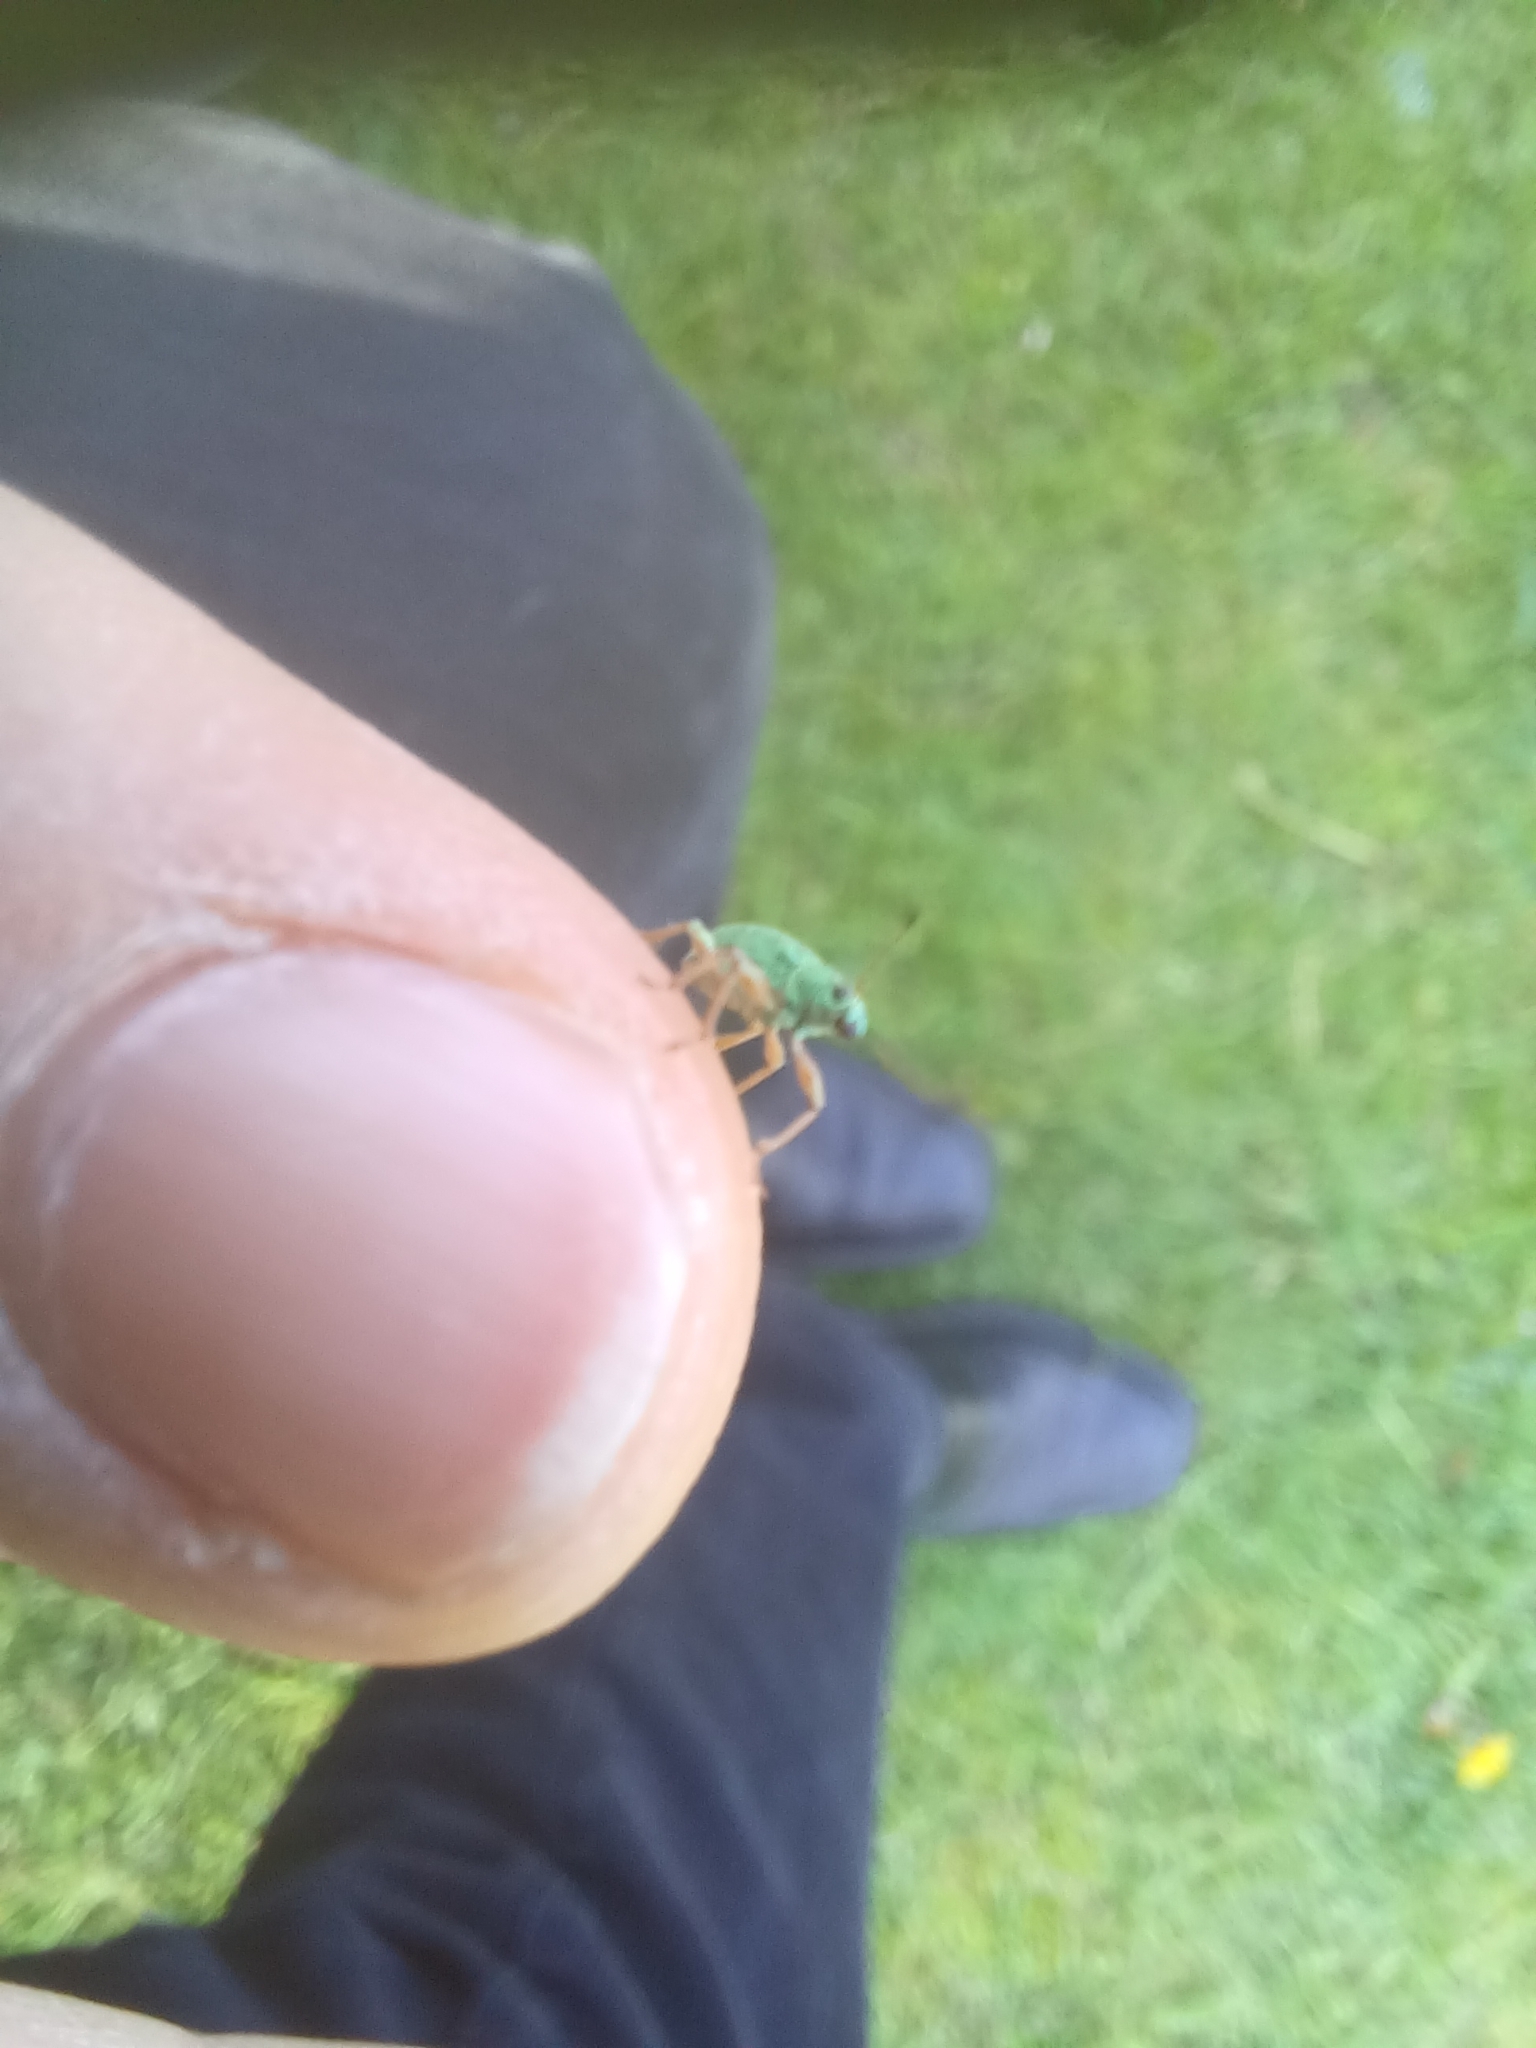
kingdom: Animalia
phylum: Arthropoda
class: Insecta
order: Coleoptera
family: Curculionidae
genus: Polydrusus
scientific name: Polydrusus formosus
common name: Weevil
